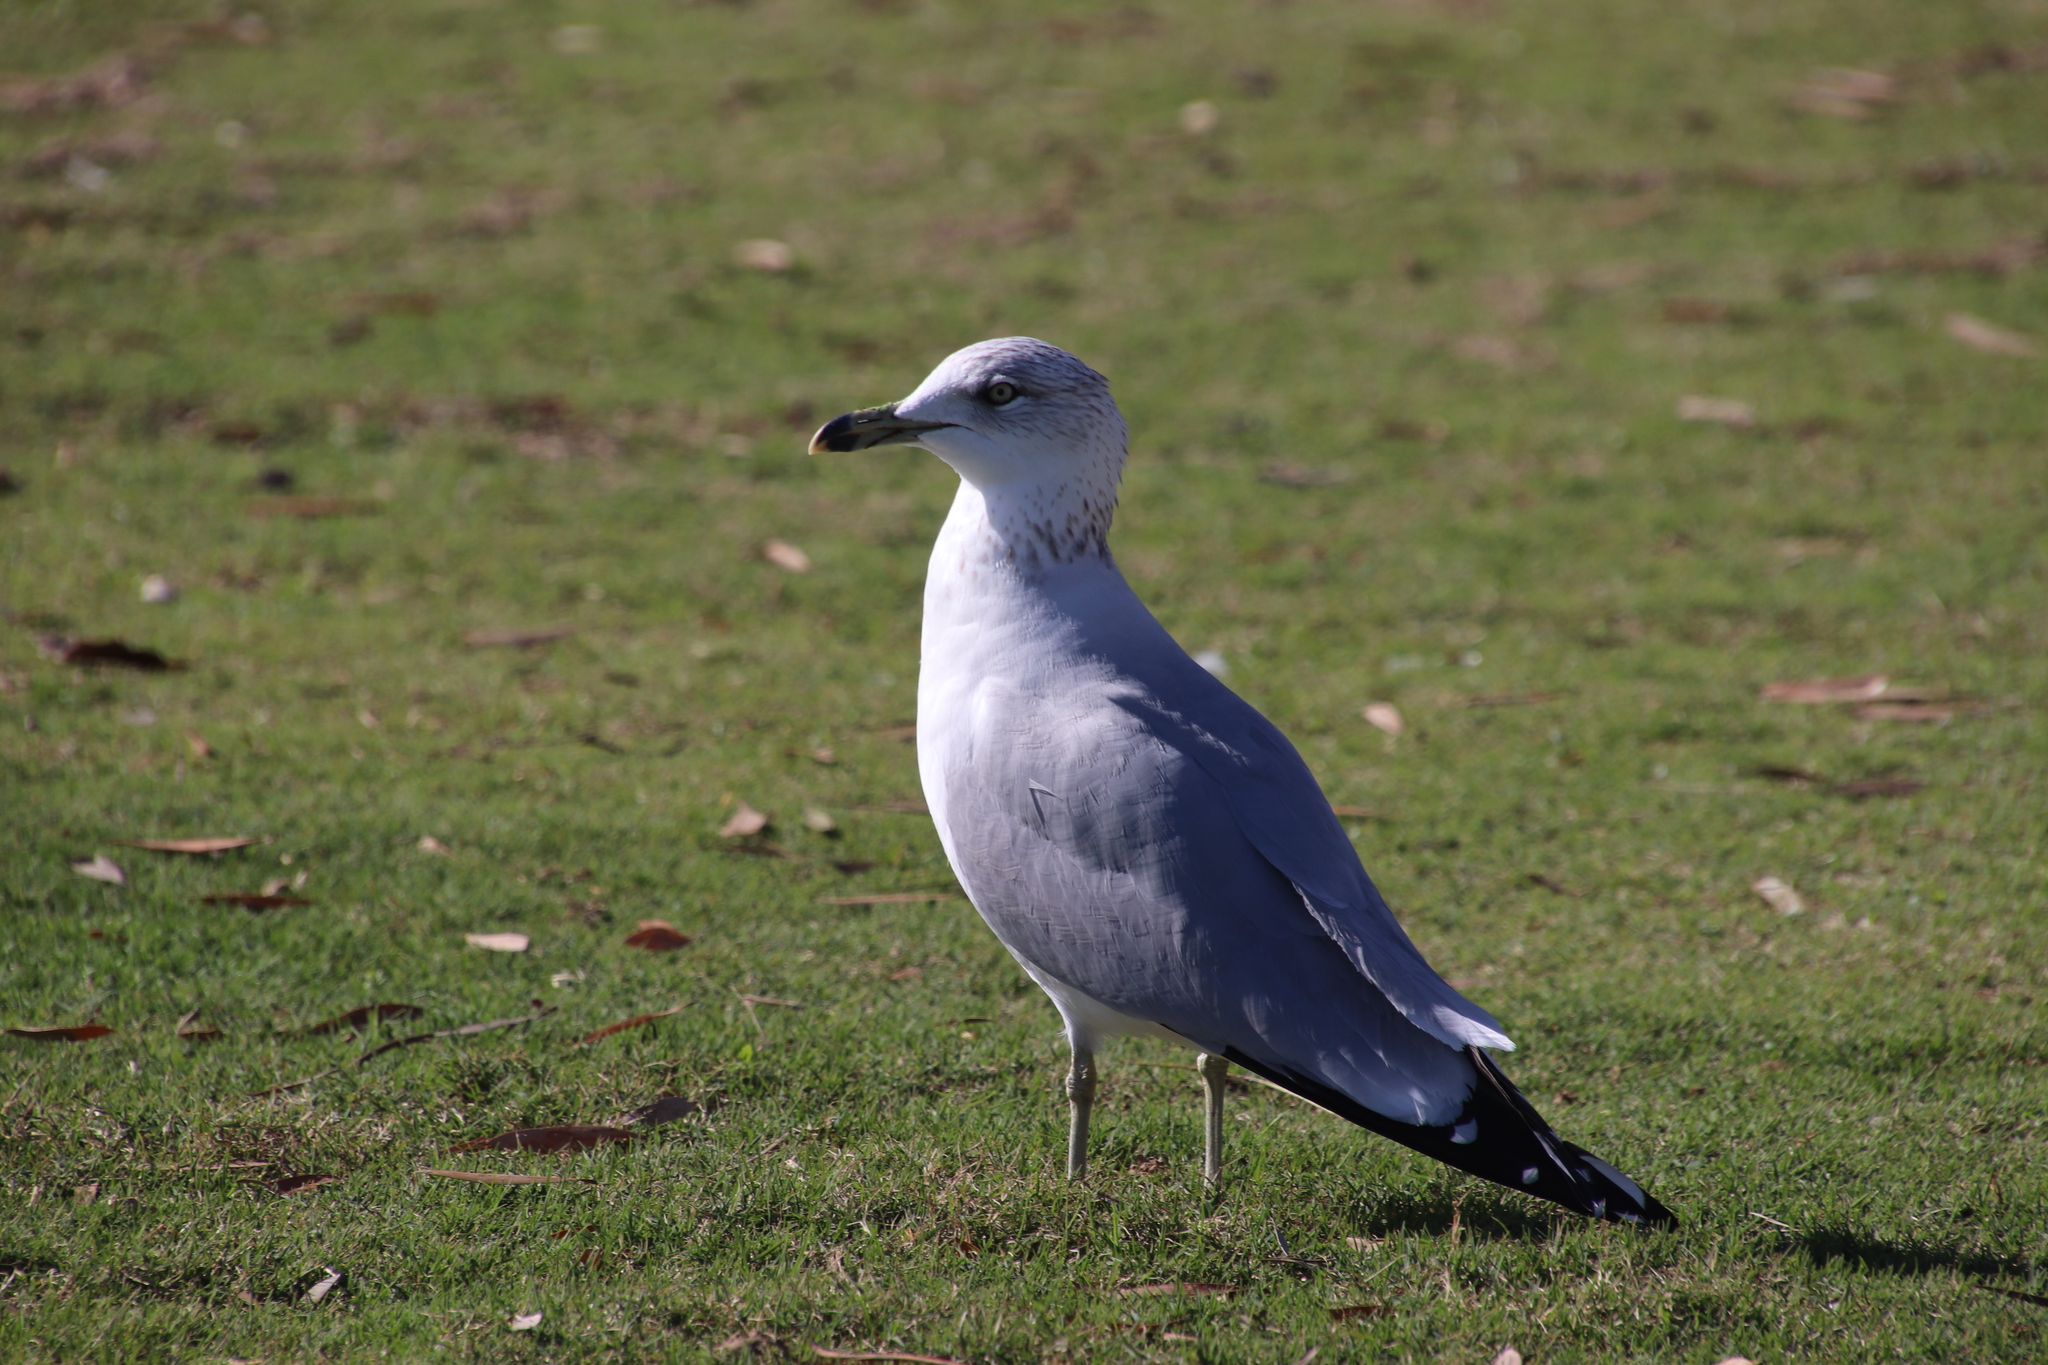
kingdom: Animalia
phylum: Chordata
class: Aves
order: Charadriiformes
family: Laridae
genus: Larus
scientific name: Larus delawarensis
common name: Ring-billed gull
